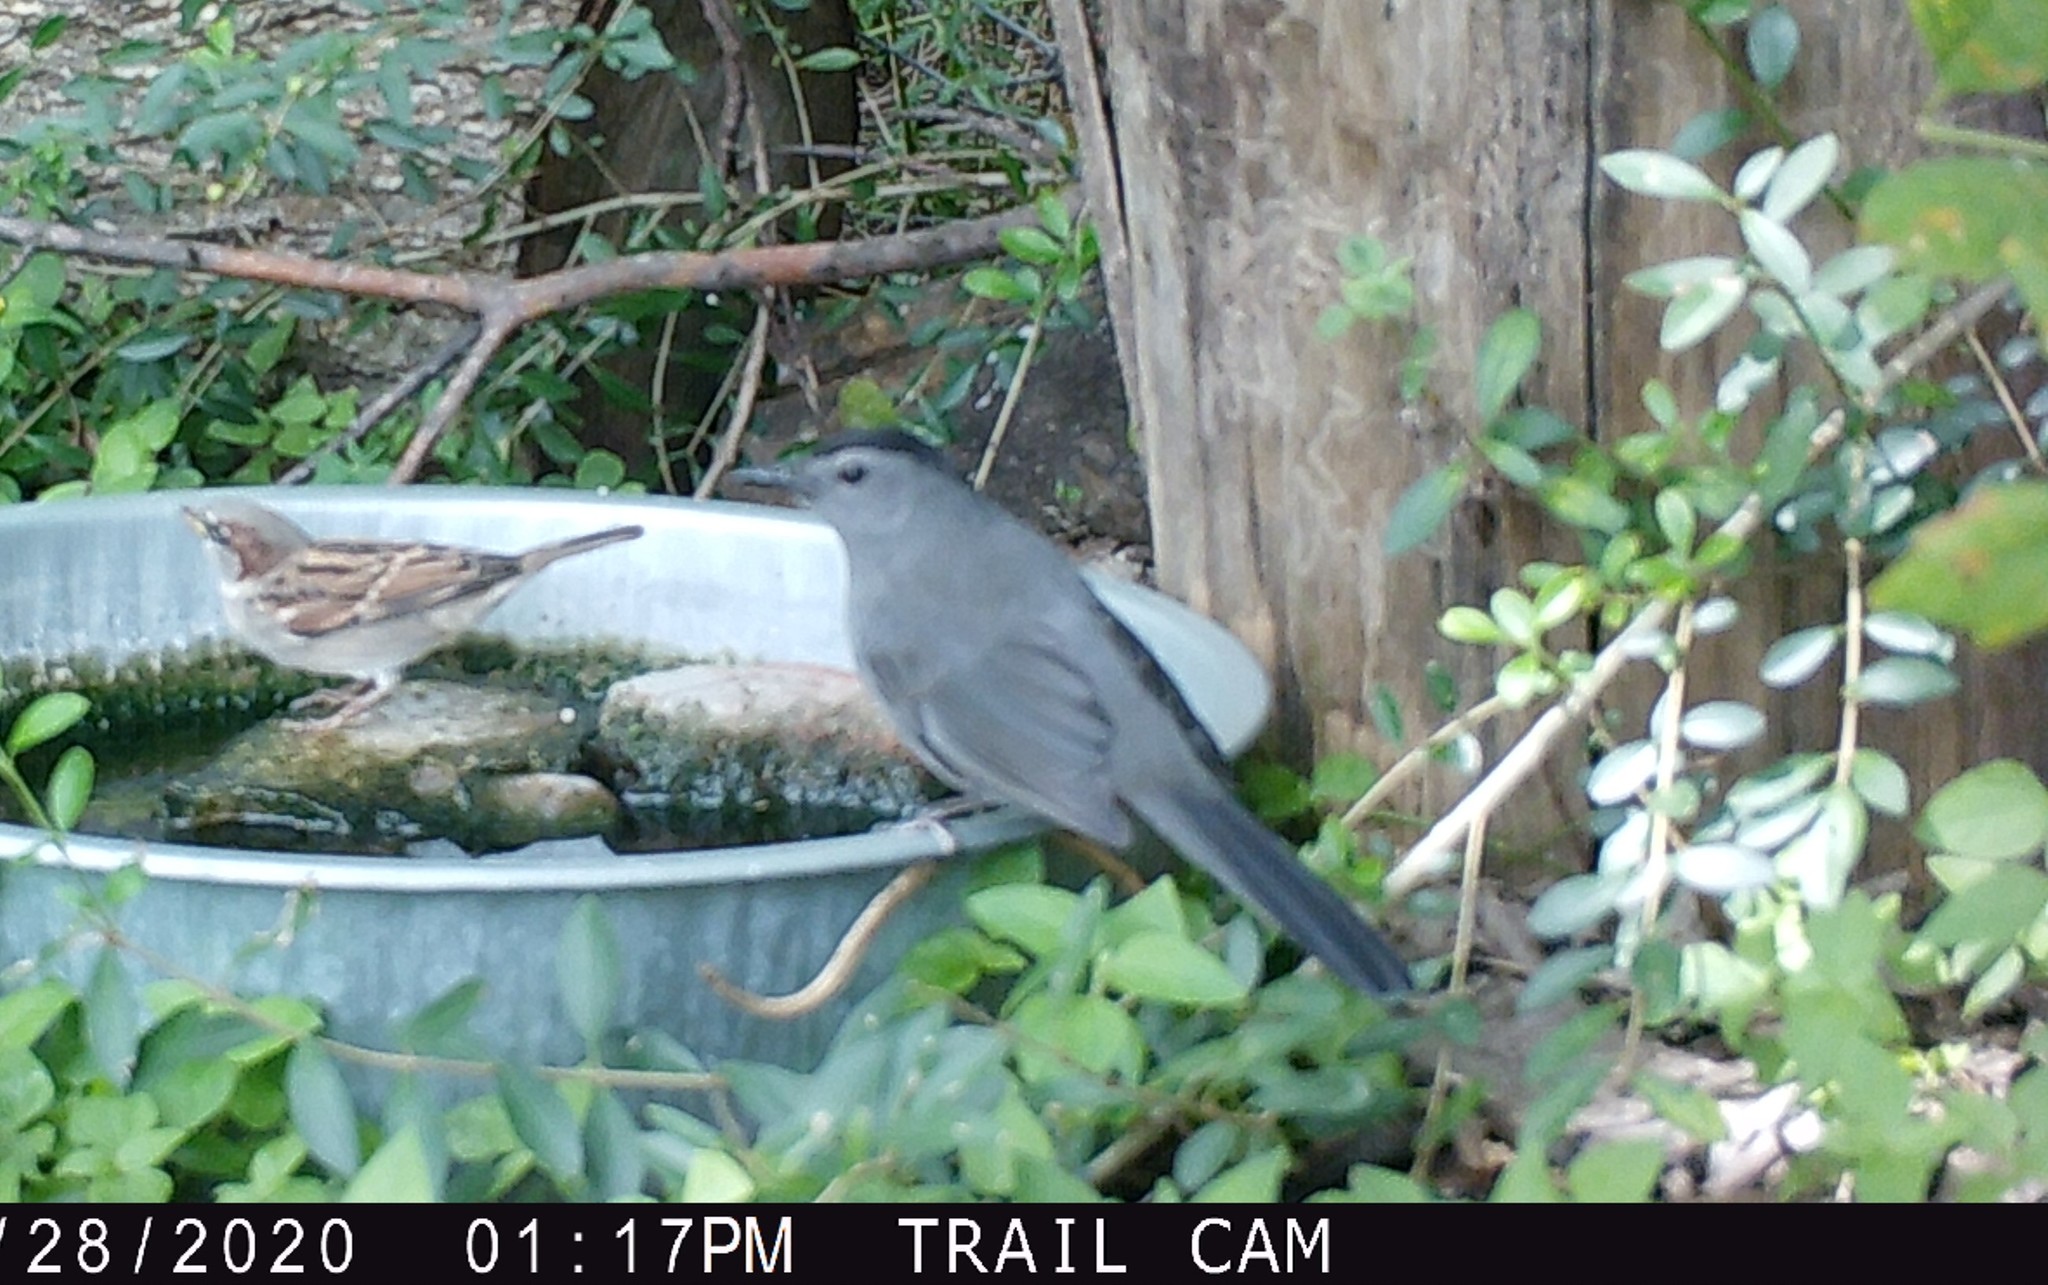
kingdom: Animalia
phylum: Chordata
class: Aves
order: Passeriformes
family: Mimidae
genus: Dumetella
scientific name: Dumetella carolinensis
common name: Gray catbird
